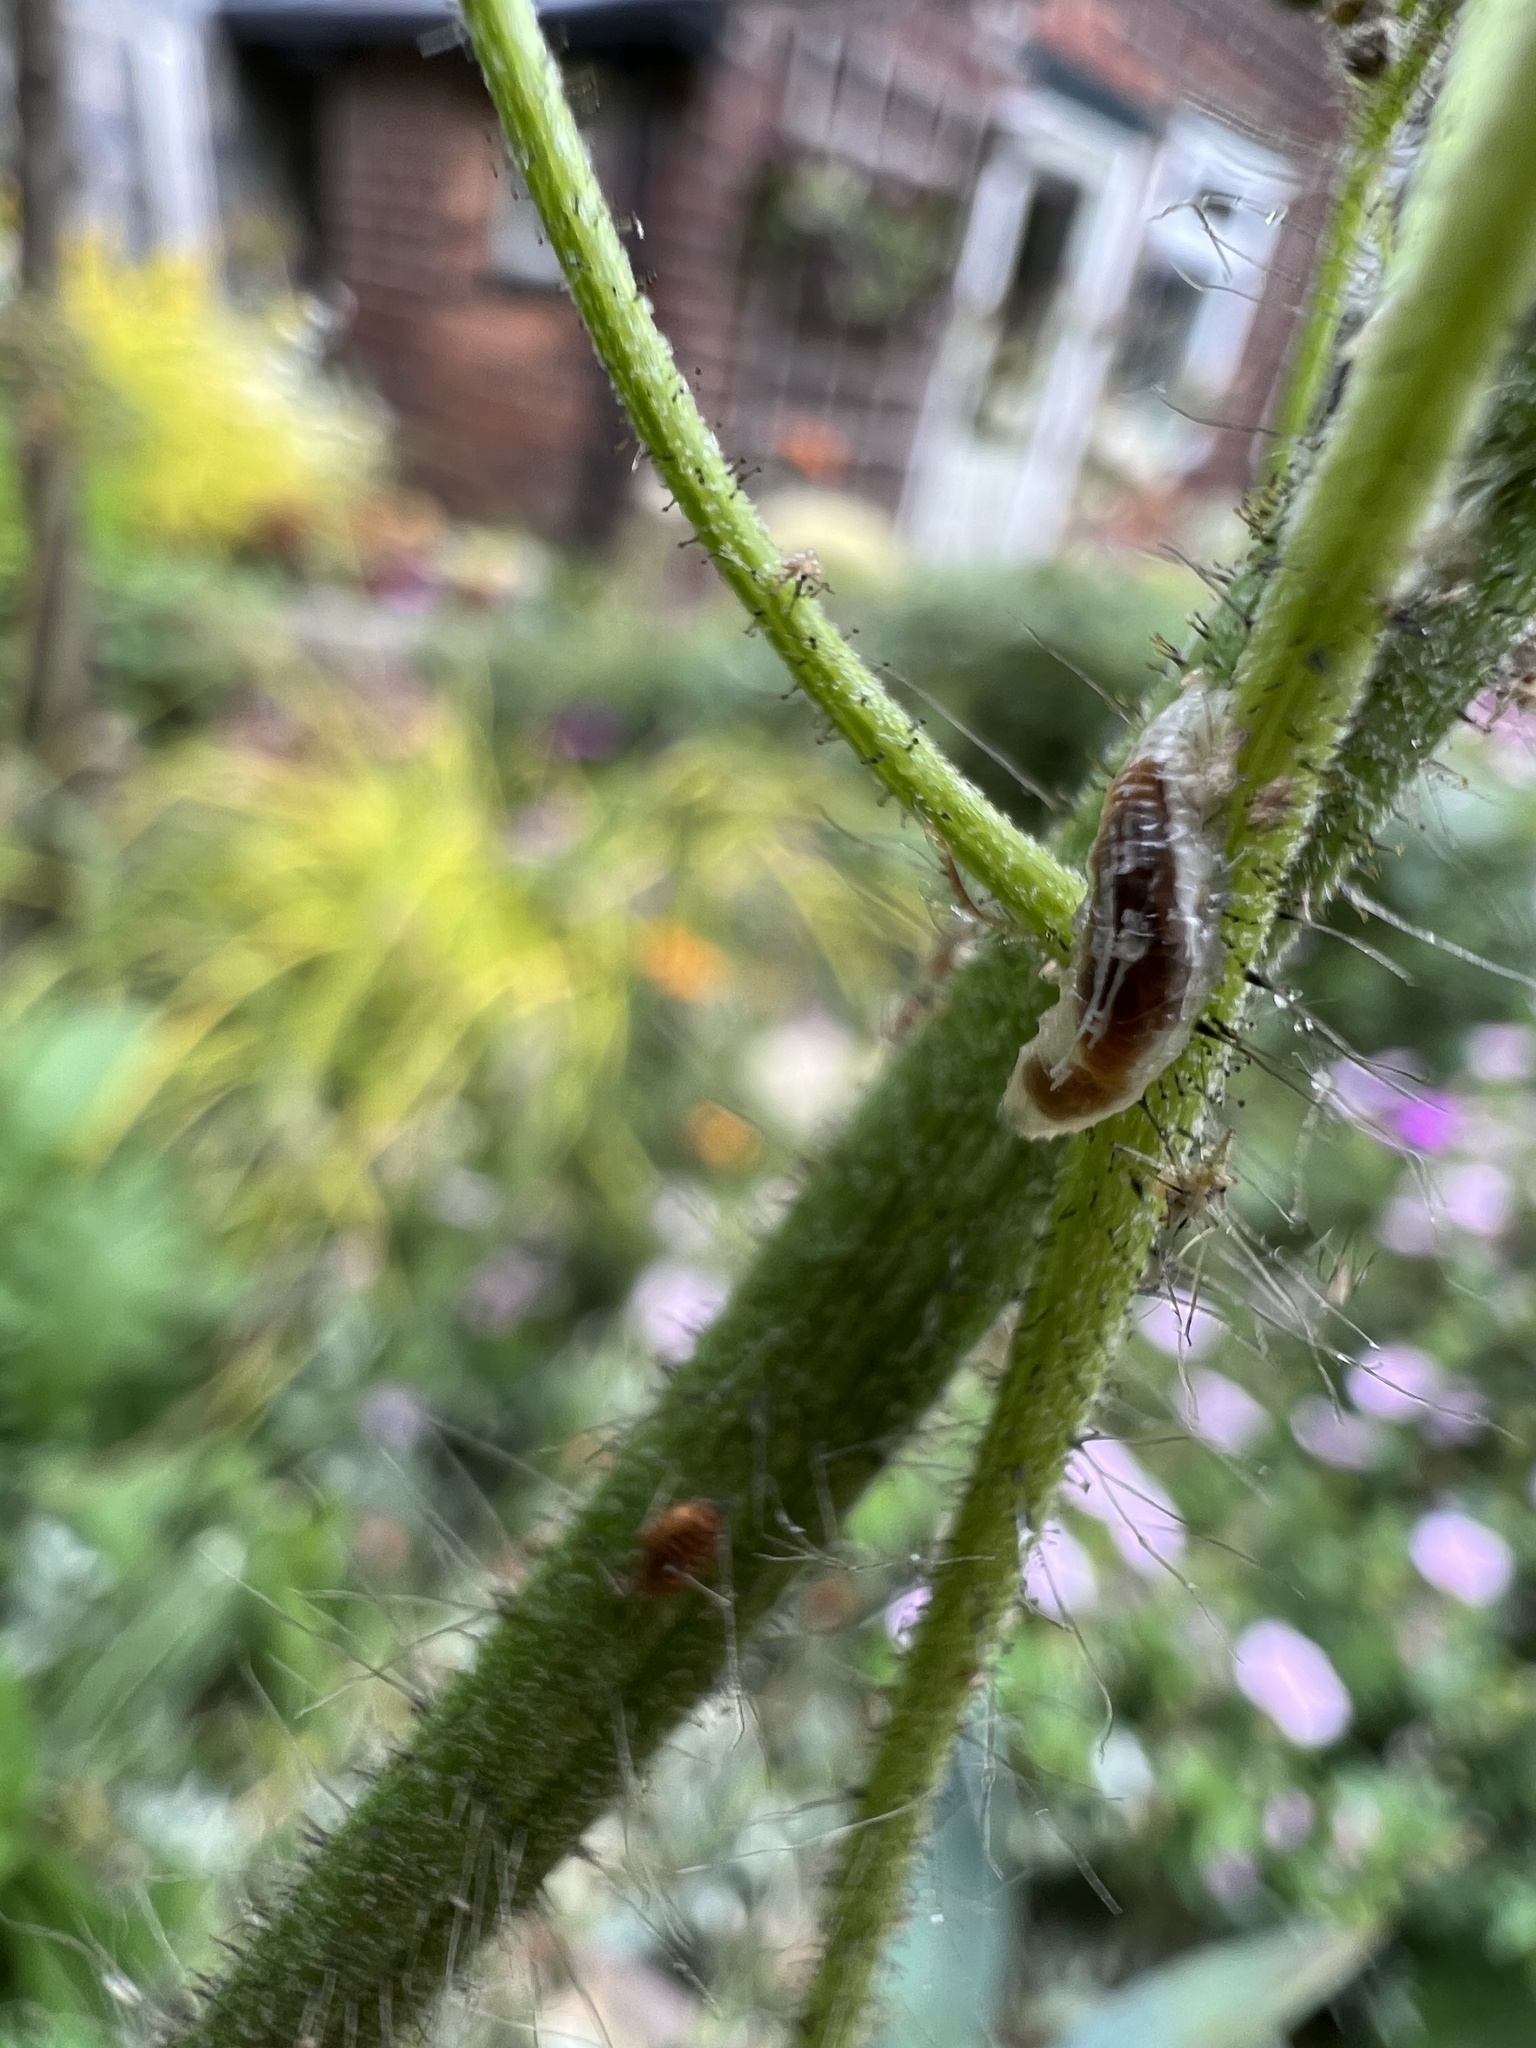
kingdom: Animalia
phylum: Arthropoda
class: Insecta
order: Diptera
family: Syrphidae
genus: Episyrphus
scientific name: Episyrphus balteatus
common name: Marmalade hoverfly
